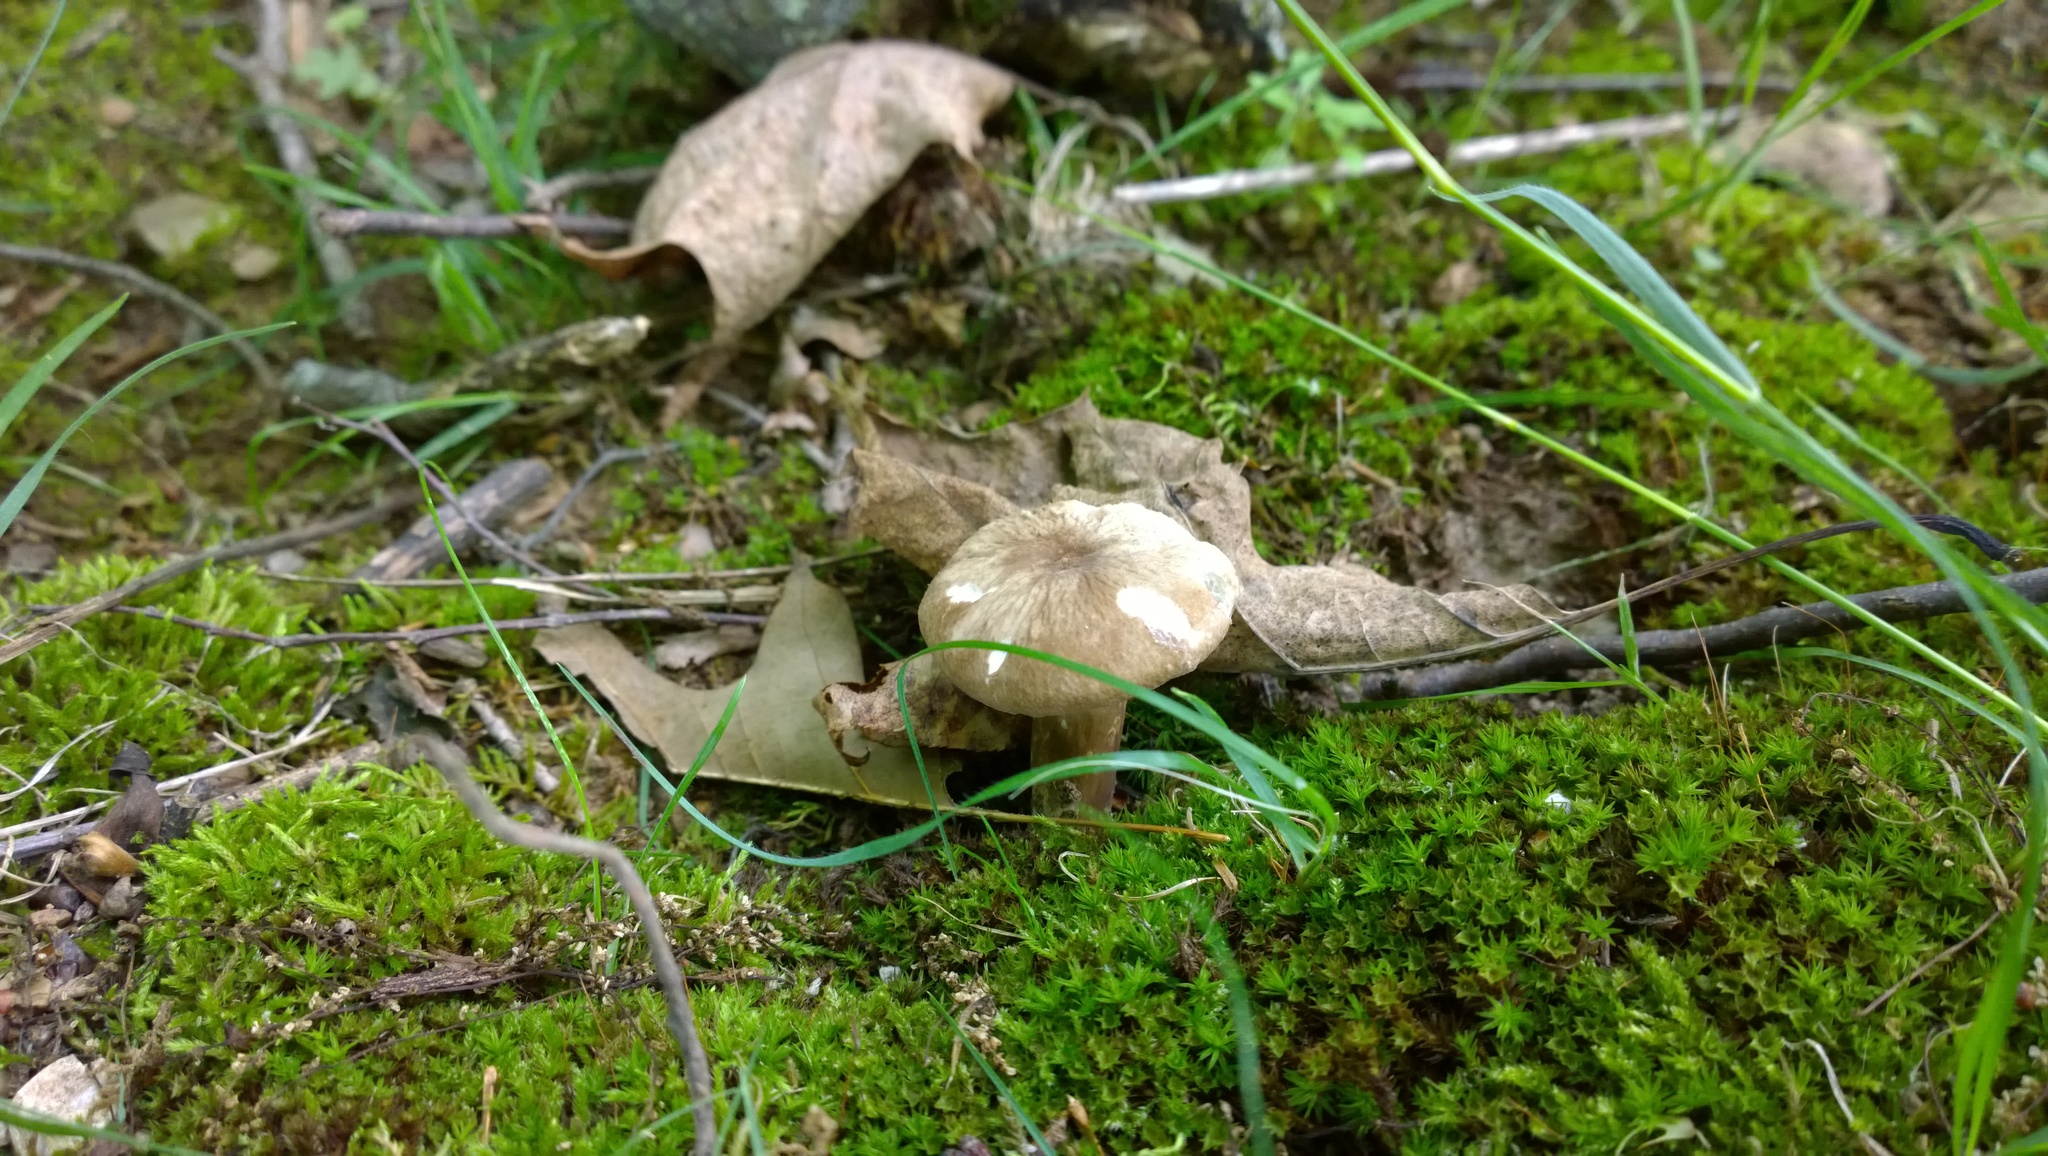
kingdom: Fungi
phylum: Basidiomycota
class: Agaricomycetes
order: Russulales
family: Russulaceae
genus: Lactarius
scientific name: Lactarius gerardii
